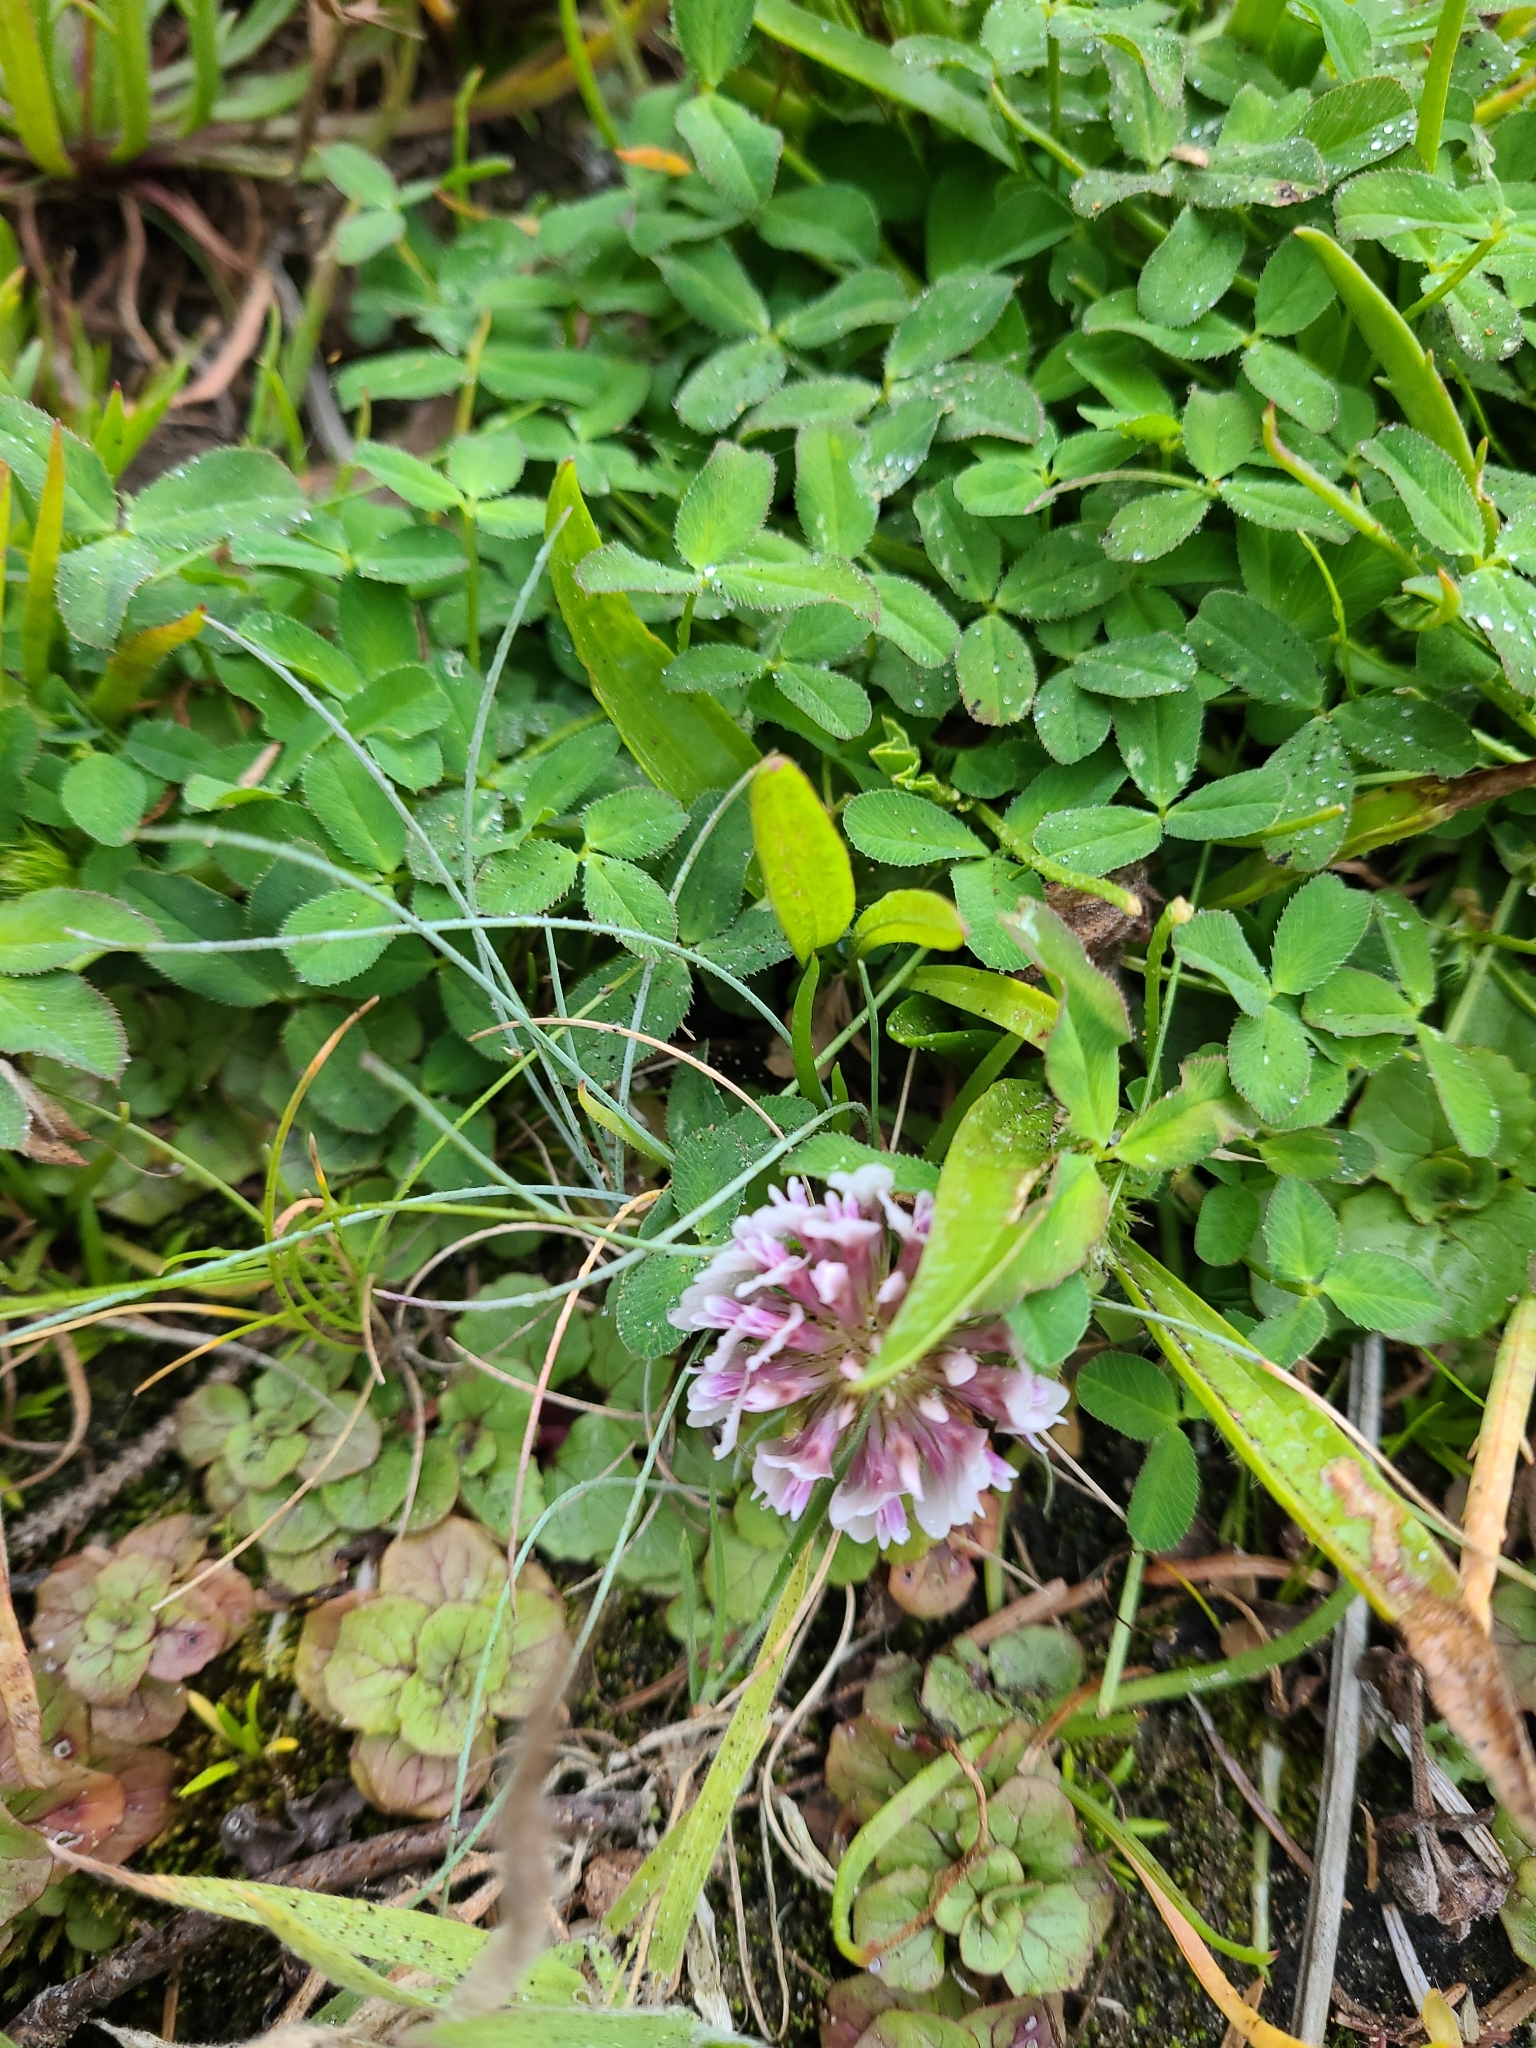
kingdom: Plantae
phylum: Tracheophyta
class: Magnoliopsida
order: Fabales
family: Fabaceae
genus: Trifolium
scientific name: Trifolium wormskioldii
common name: Springbank clover
